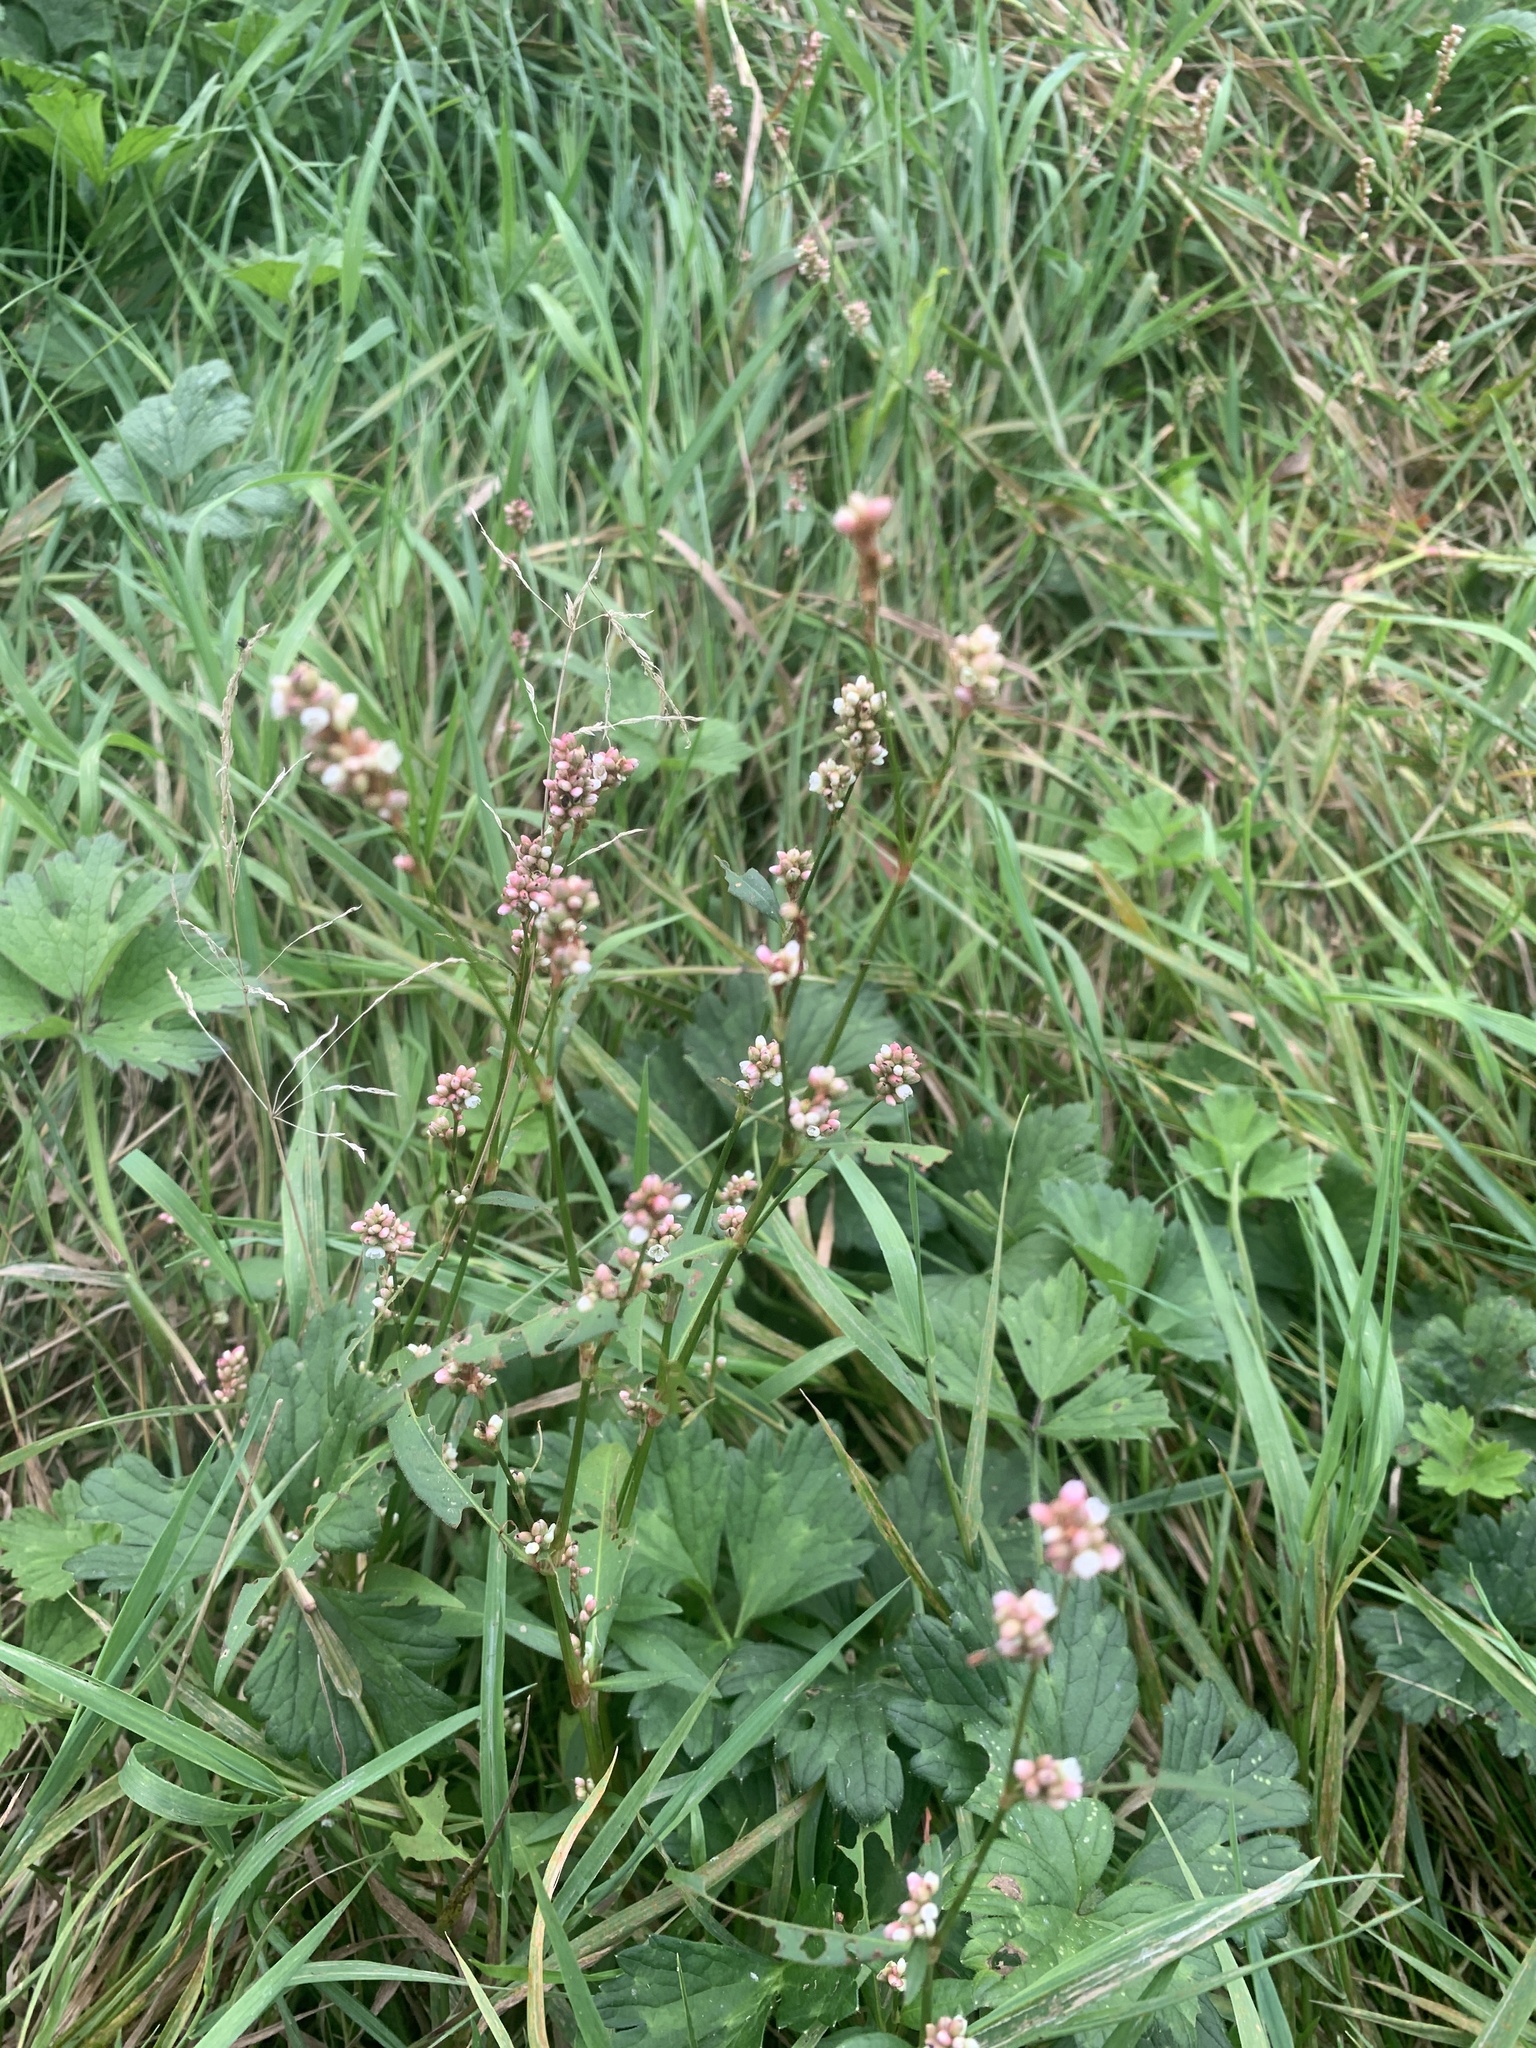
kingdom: Plantae
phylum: Tracheophyta
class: Magnoliopsida
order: Caryophyllales
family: Polygonaceae
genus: Persicaria
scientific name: Persicaria maculosa
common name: Redshank
